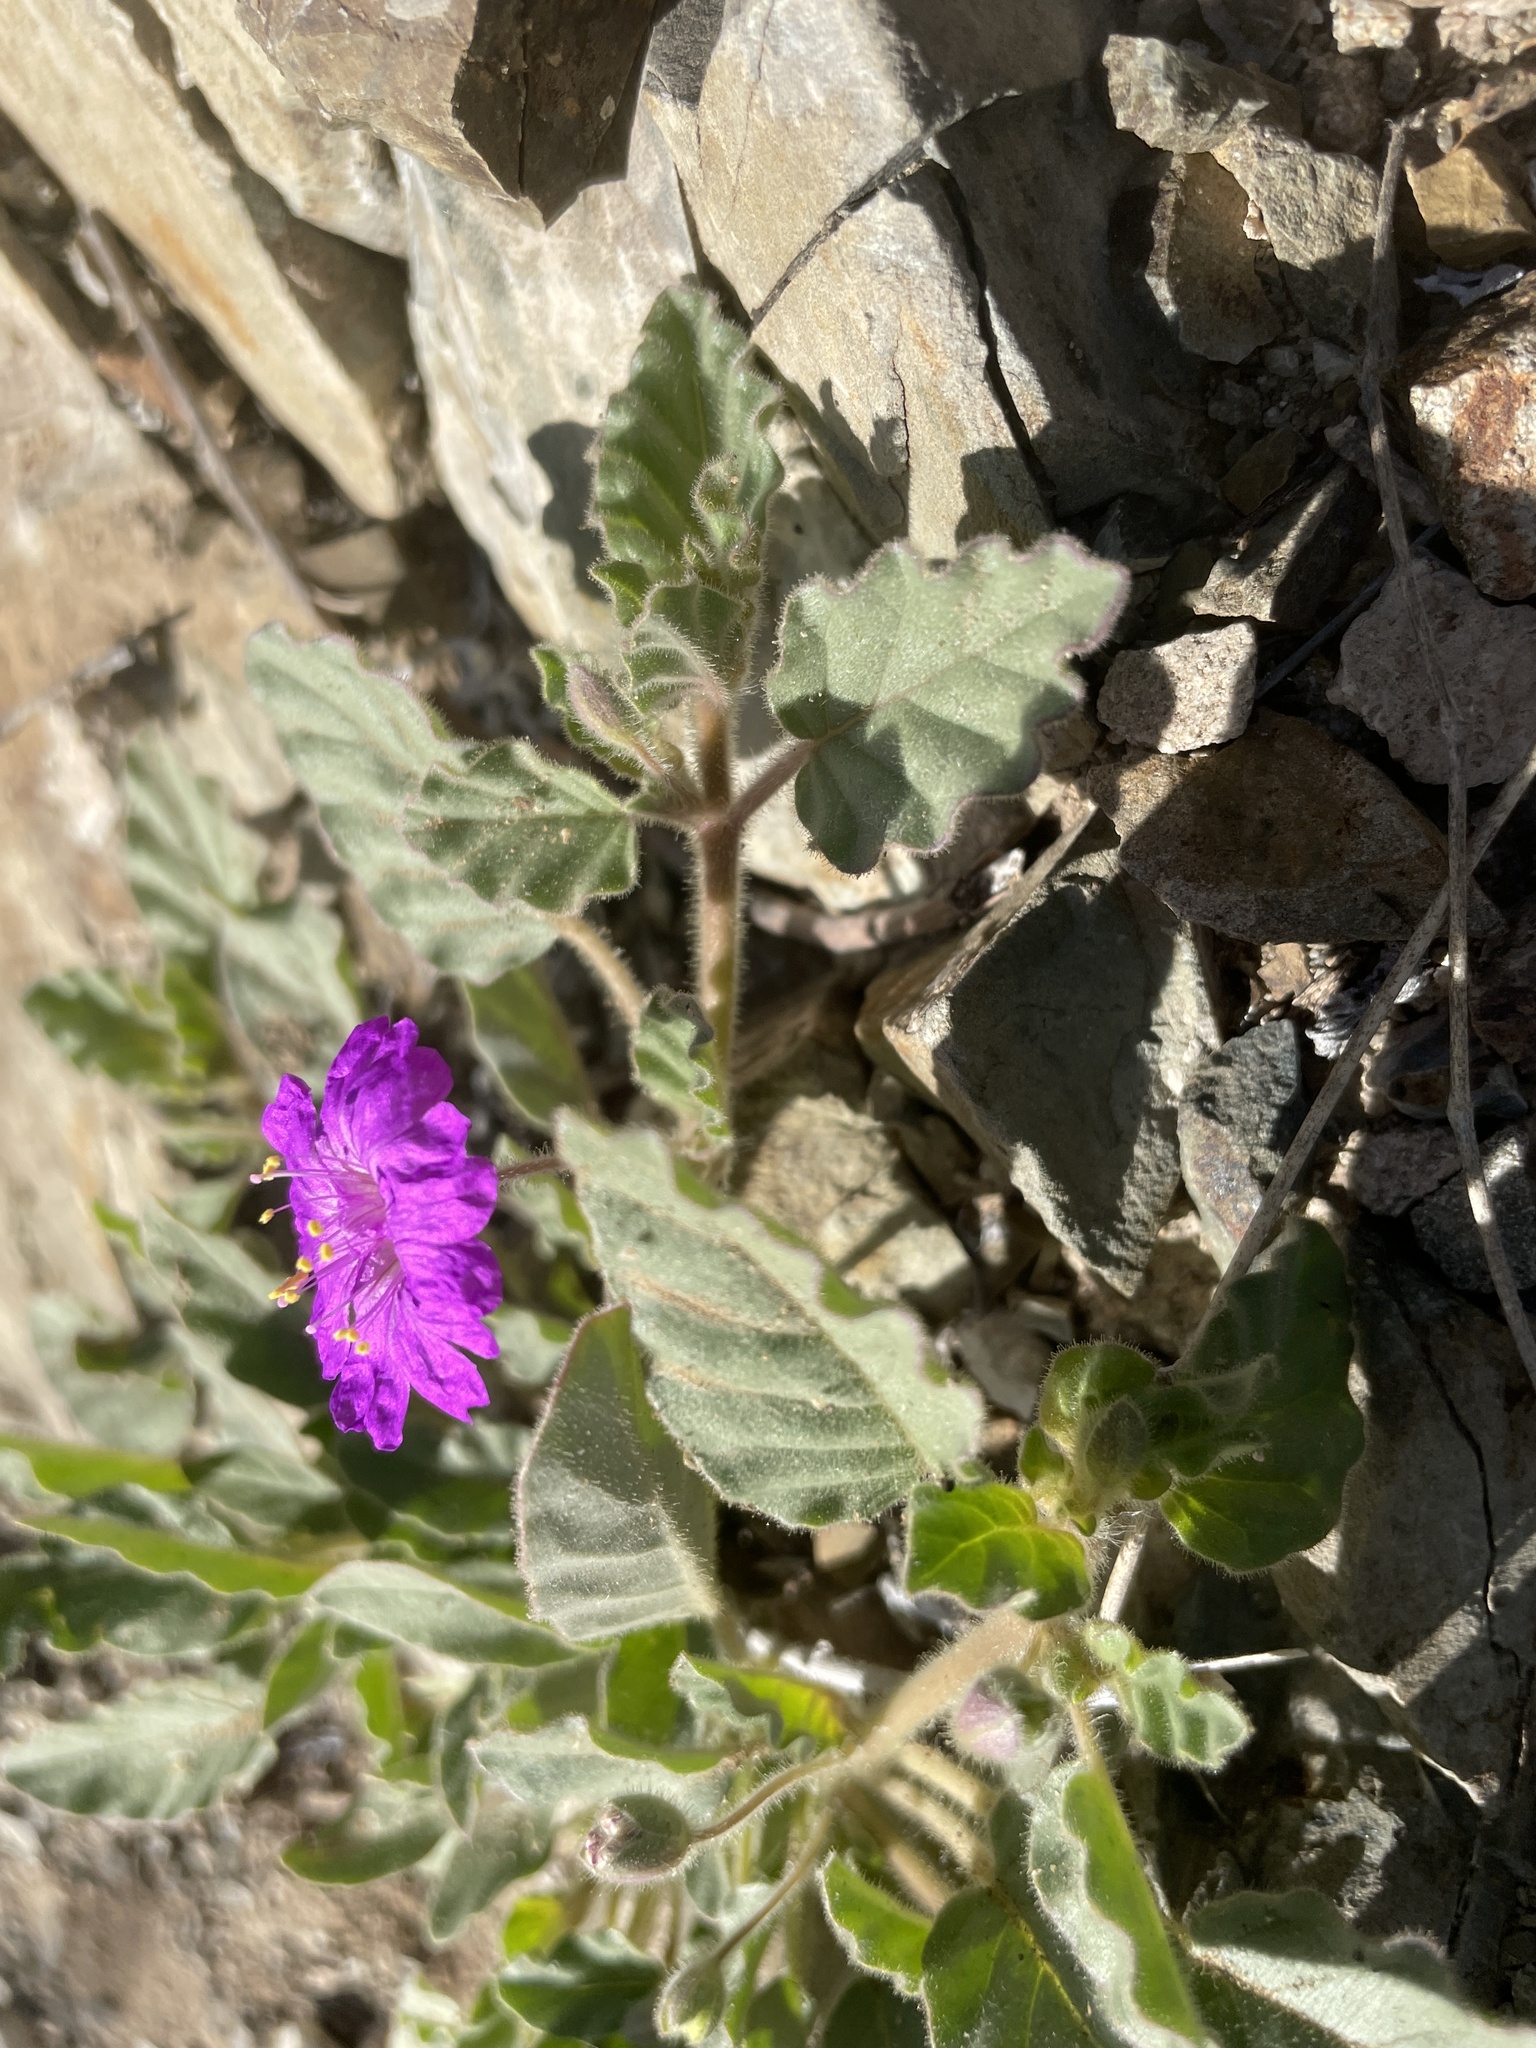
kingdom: Plantae
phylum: Tracheophyta
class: Magnoliopsida
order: Caryophyllales
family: Nyctaginaceae
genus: Allionia
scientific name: Allionia incarnata
